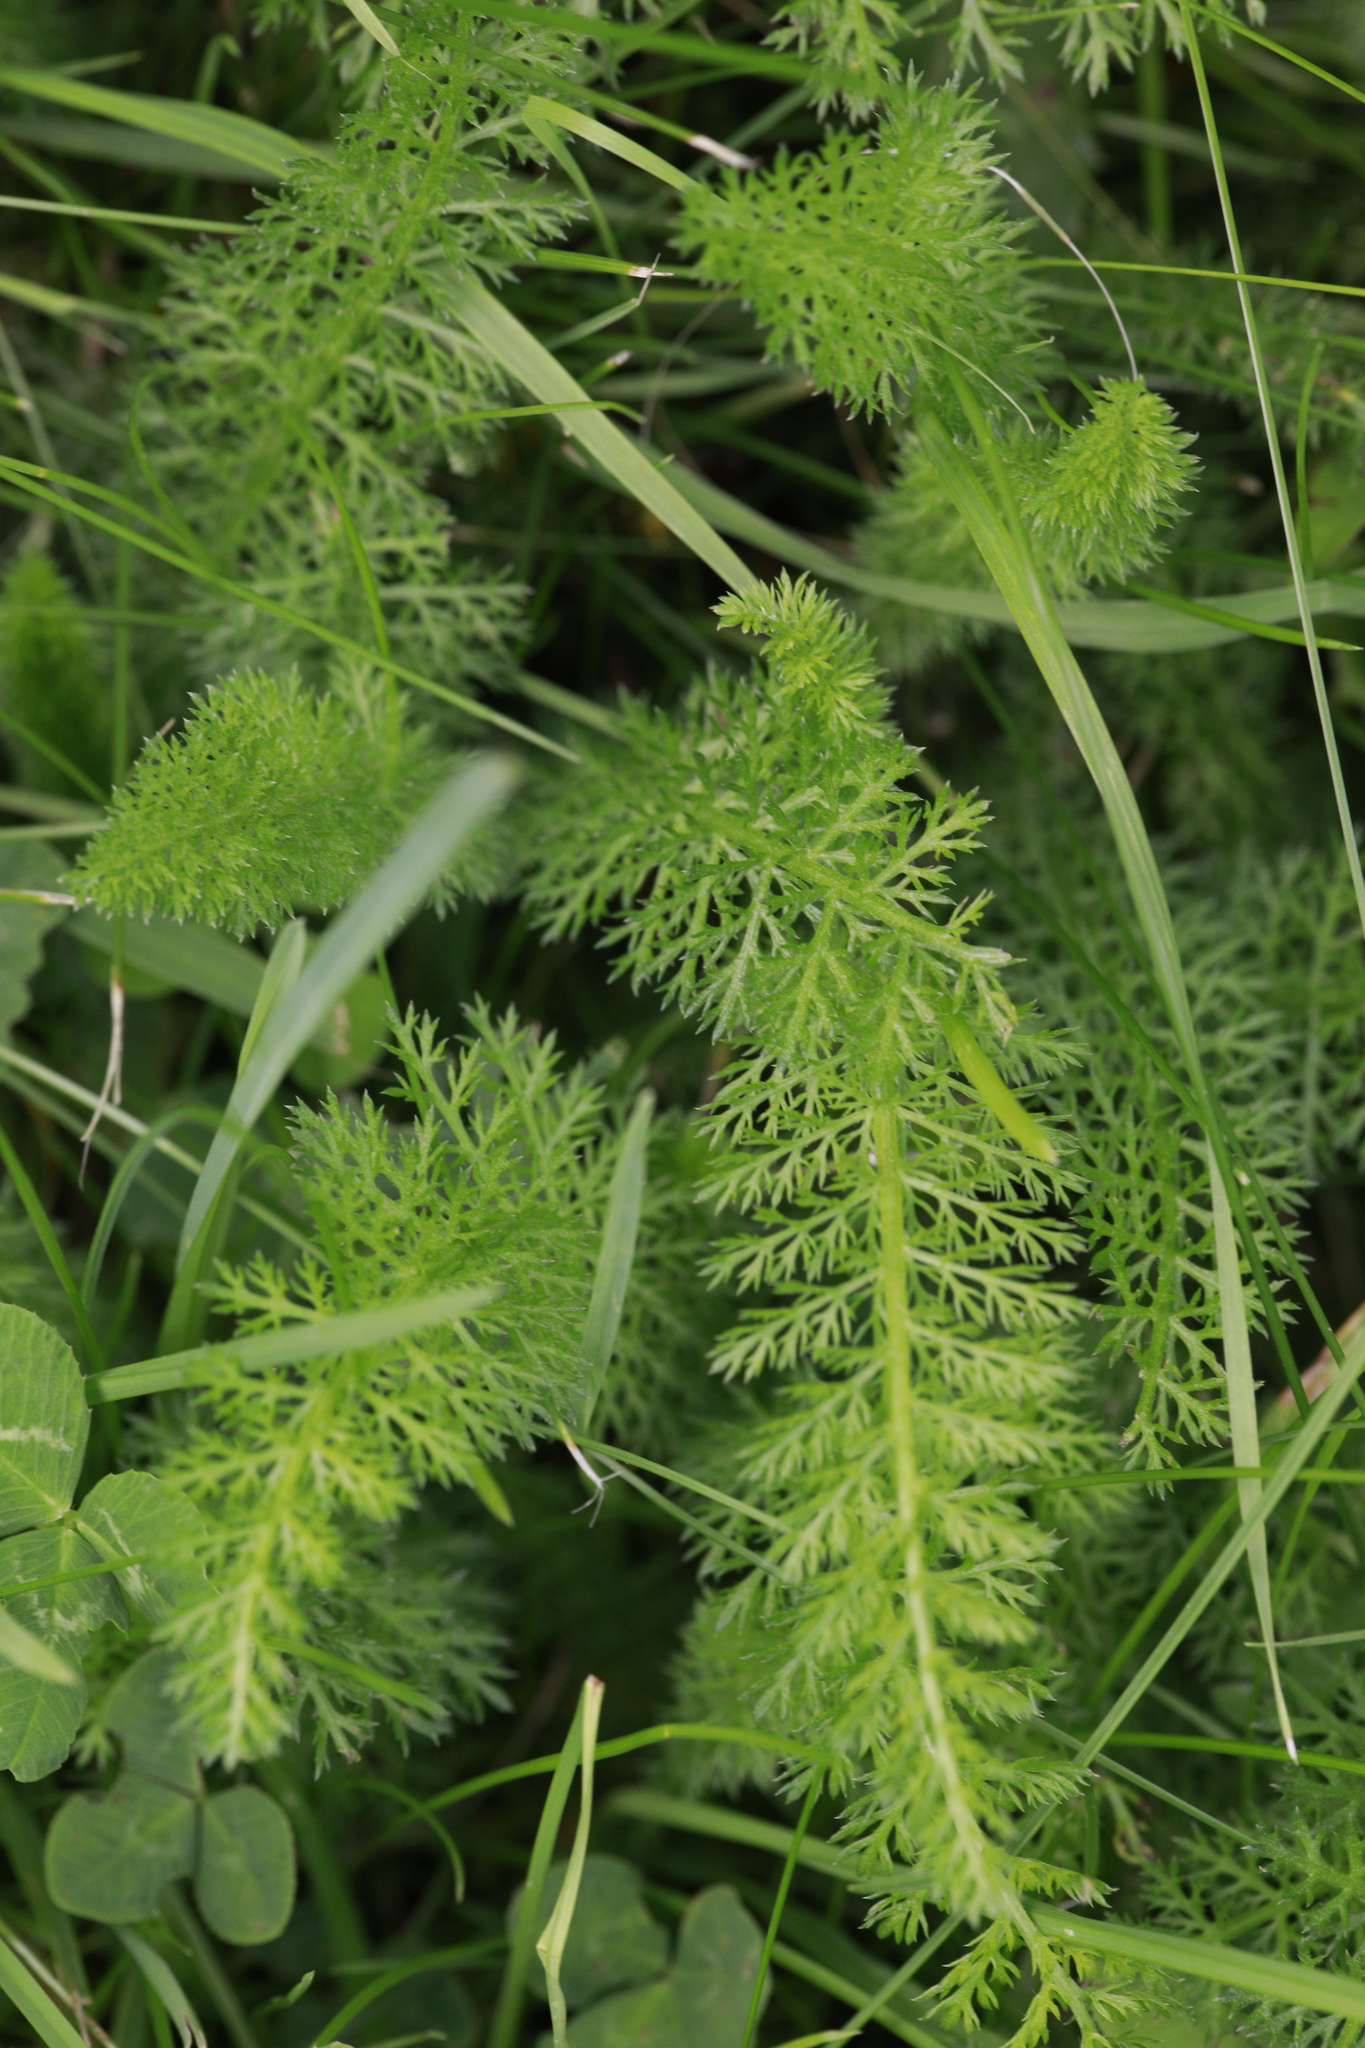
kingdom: Plantae
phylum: Tracheophyta
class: Magnoliopsida
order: Asterales
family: Asteraceae
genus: Achillea
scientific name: Achillea millefolium
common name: Yarrow
